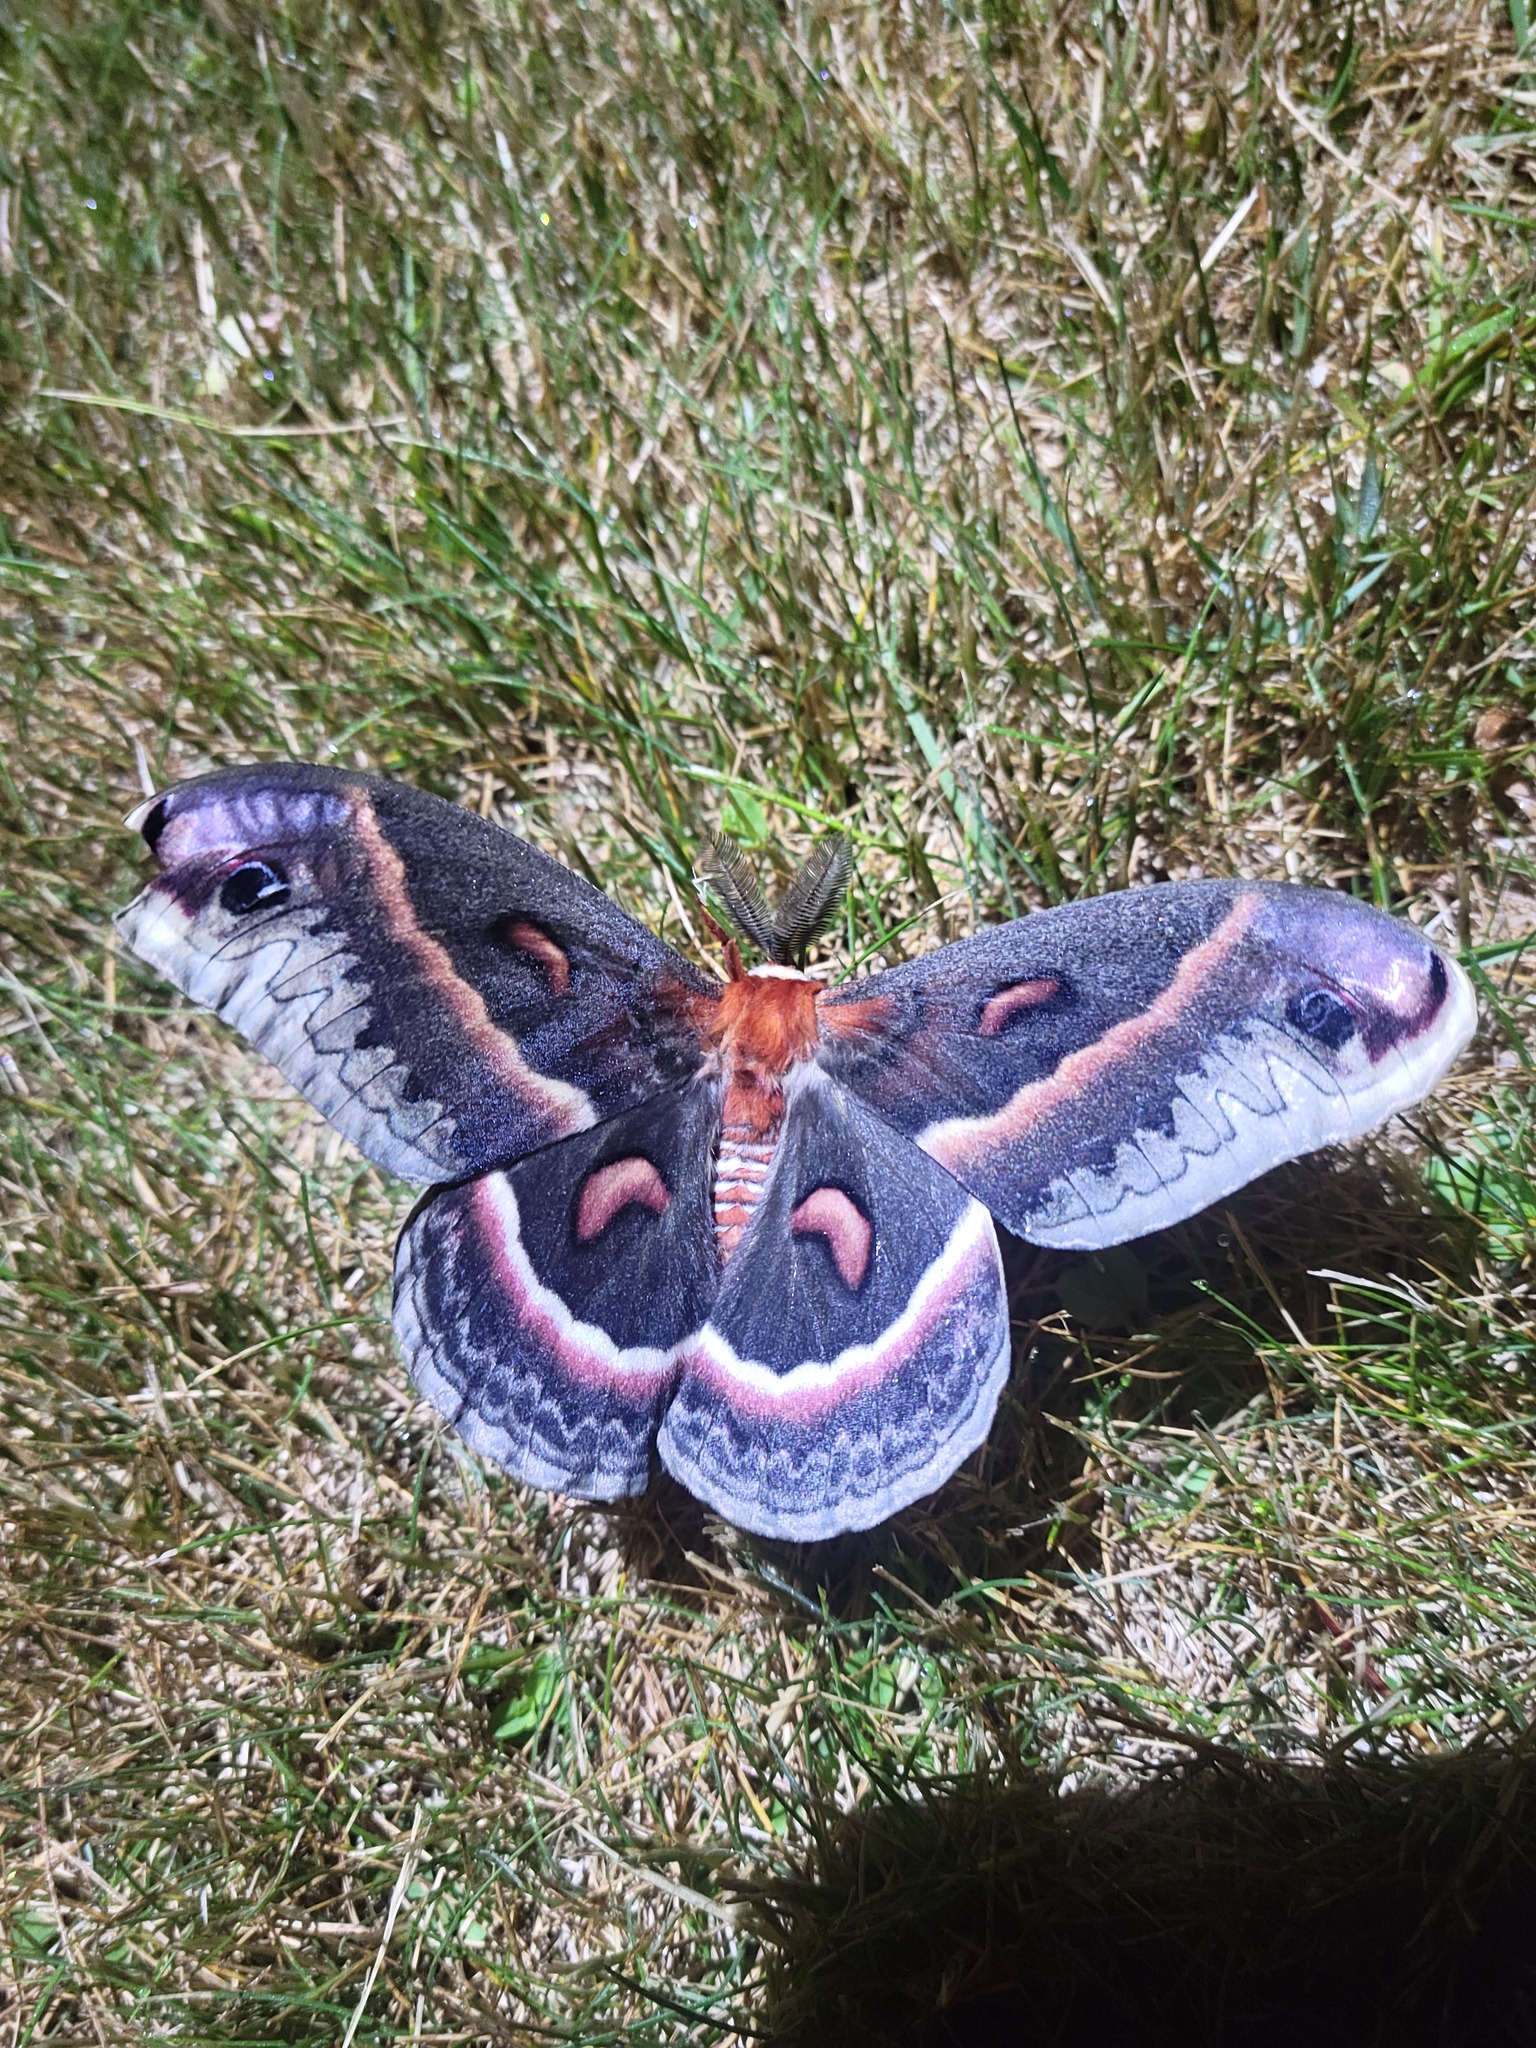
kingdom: Animalia
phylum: Arthropoda
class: Insecta
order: Lepidoptera
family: Saturniidae
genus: Hyalophora
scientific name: Hyalophora cecropia
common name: Cecropia silkmoth
